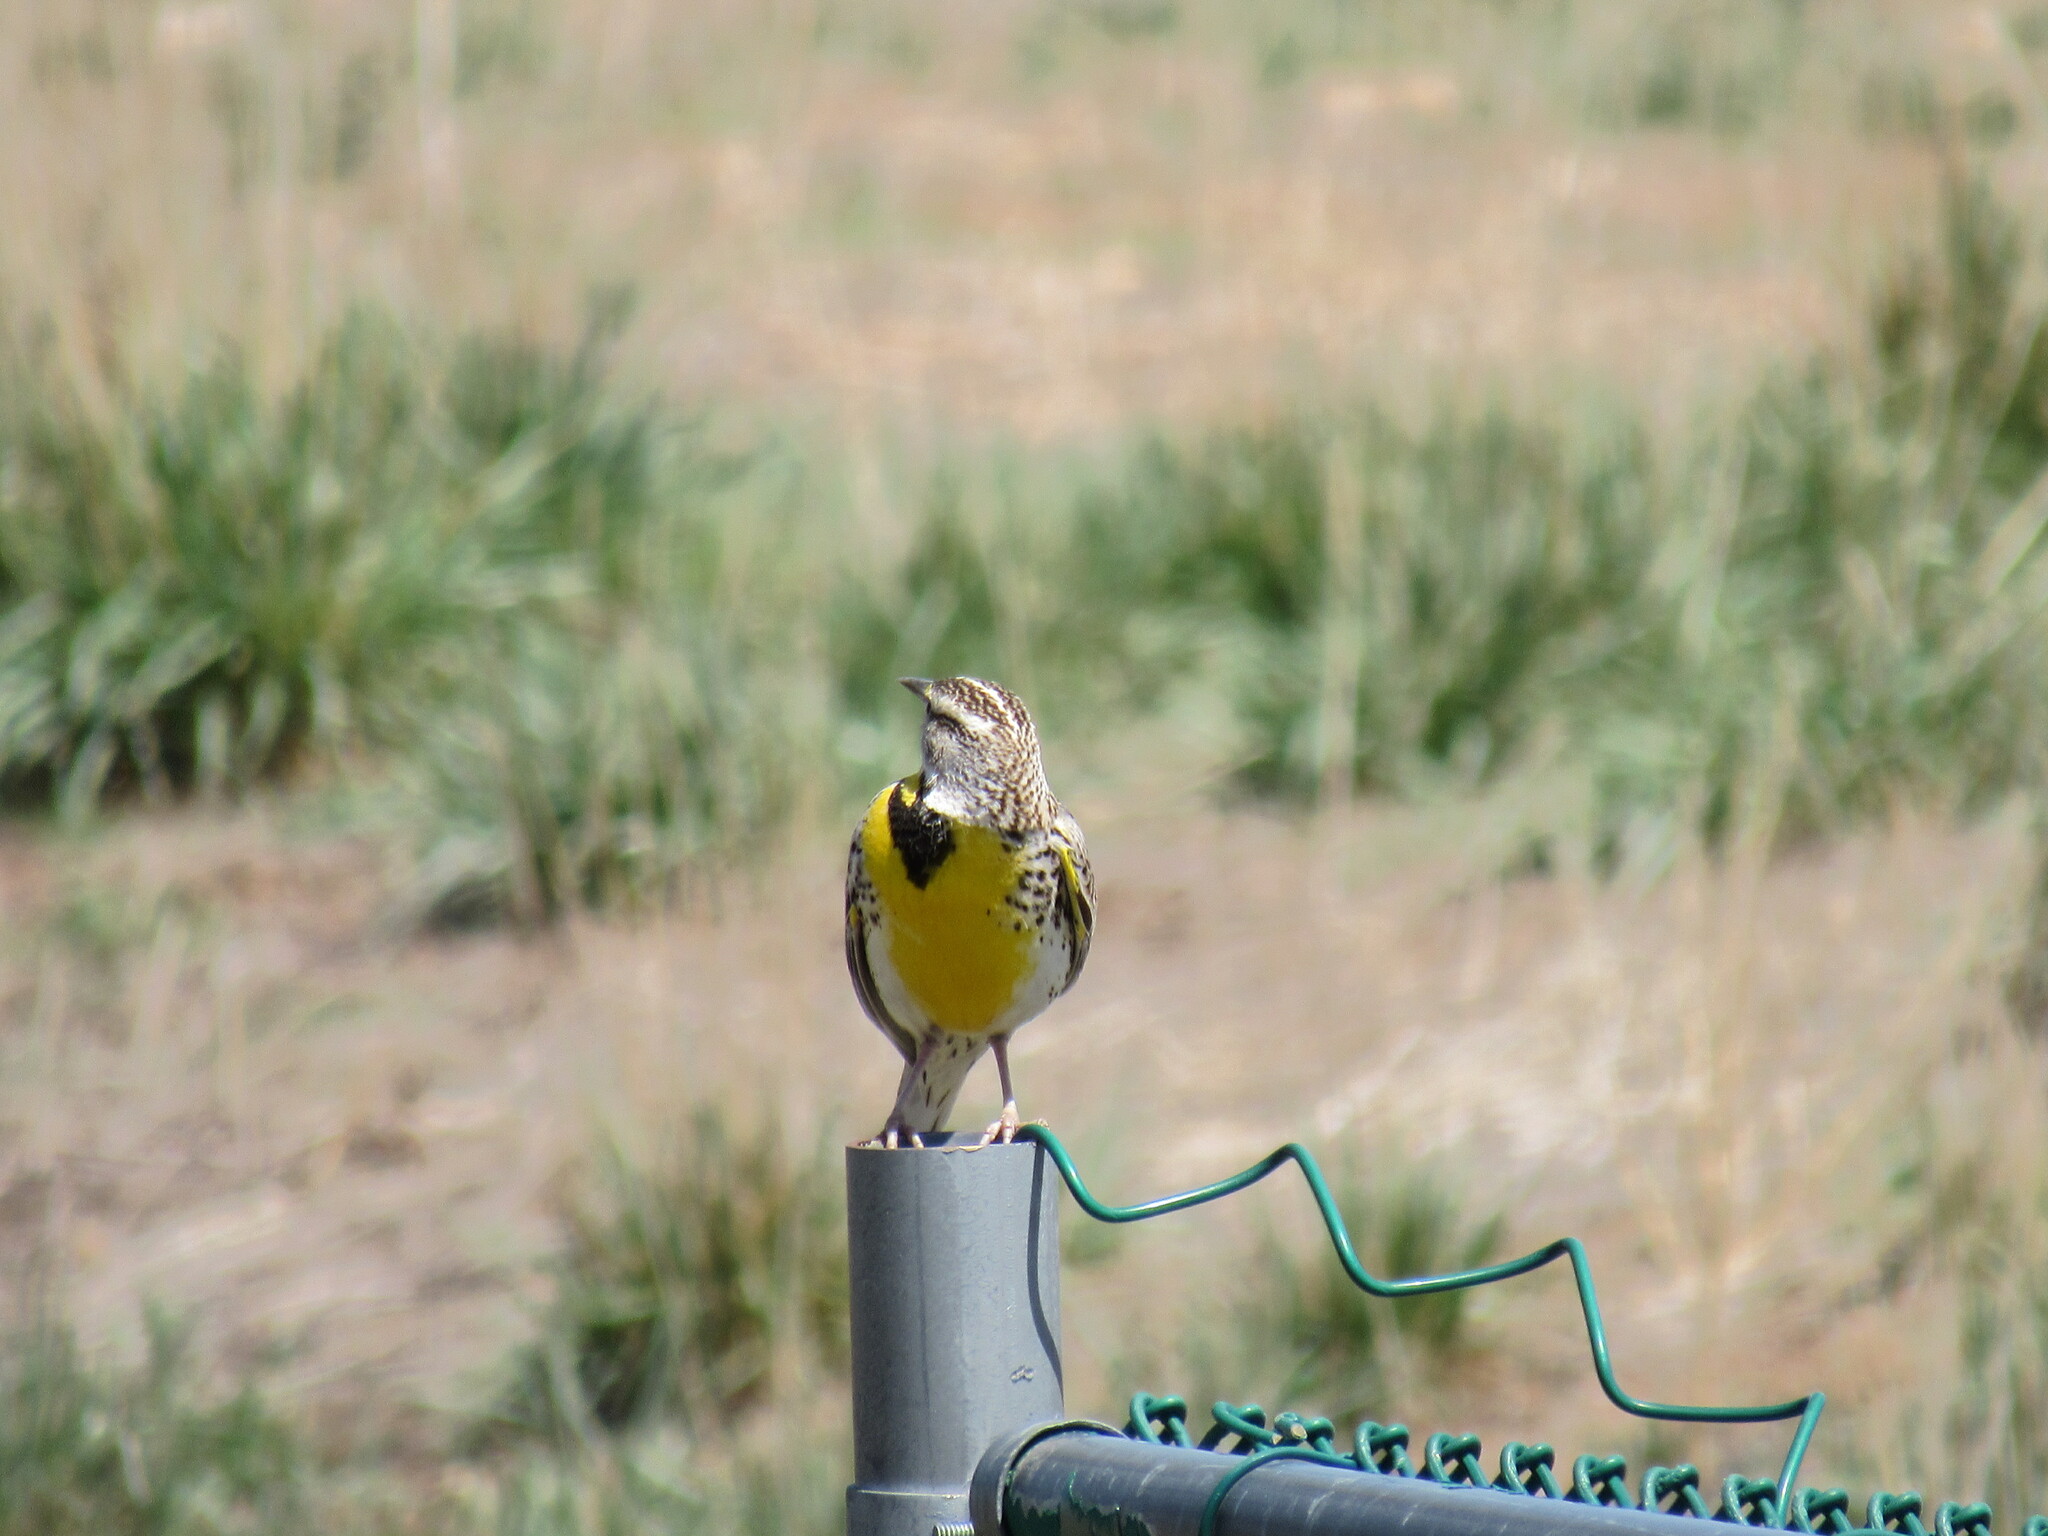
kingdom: Animalia
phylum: Chordata
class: Aves
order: Passeriformes
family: Icteridae
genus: Sturnella
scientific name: Sturnella neglecta
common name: Western meadowlark
